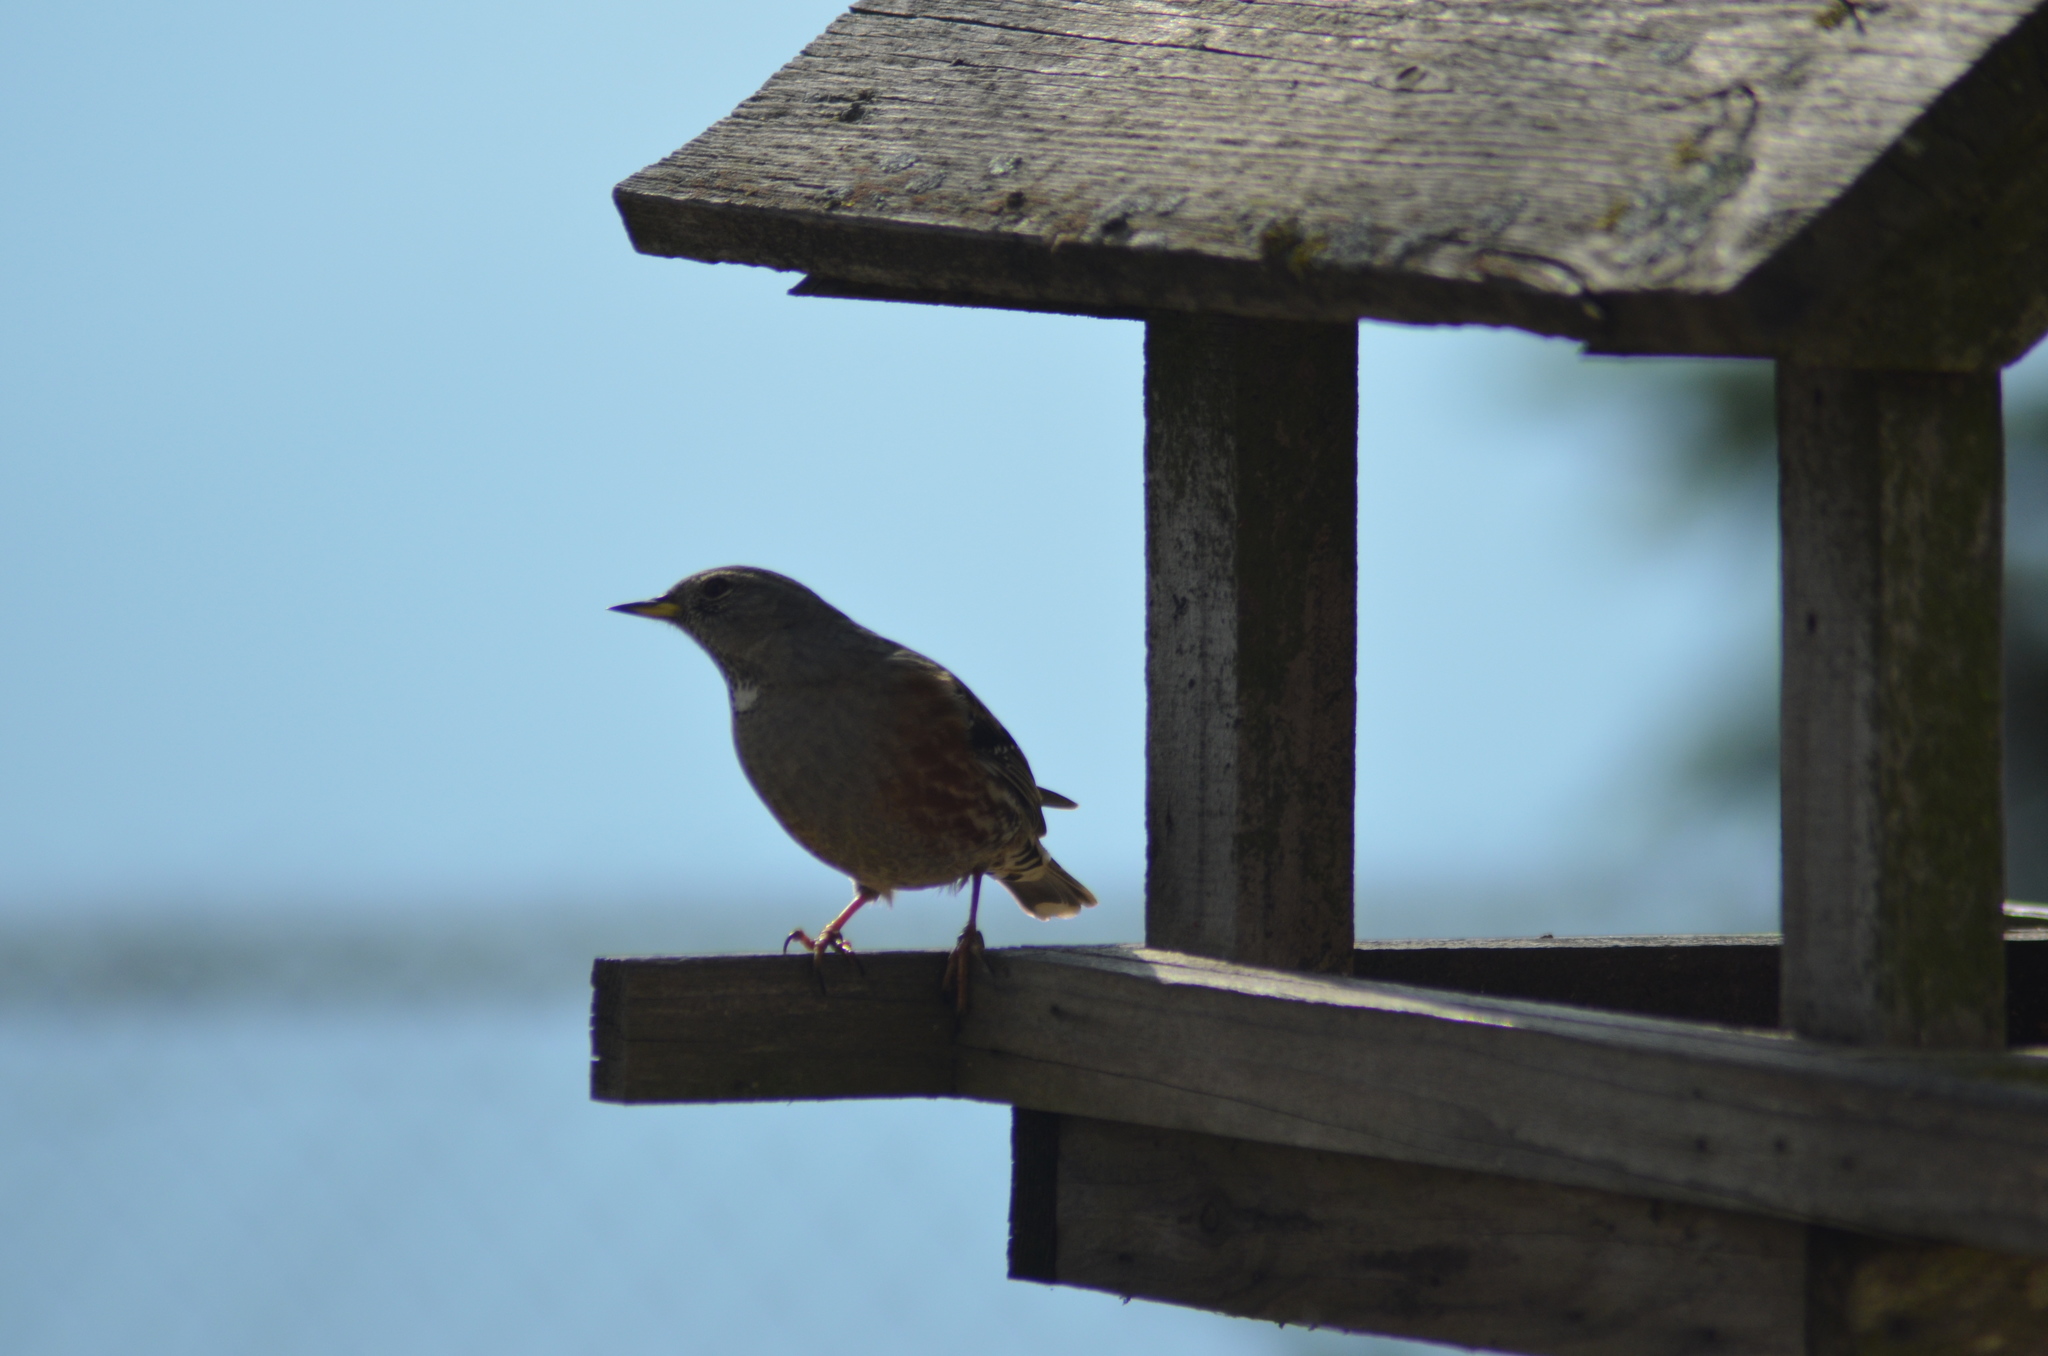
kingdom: Animalia
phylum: Chordata
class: Aves
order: Passeriformes
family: Prunellidae
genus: Prunella
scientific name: Prunella collaris
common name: Alpine accentor
